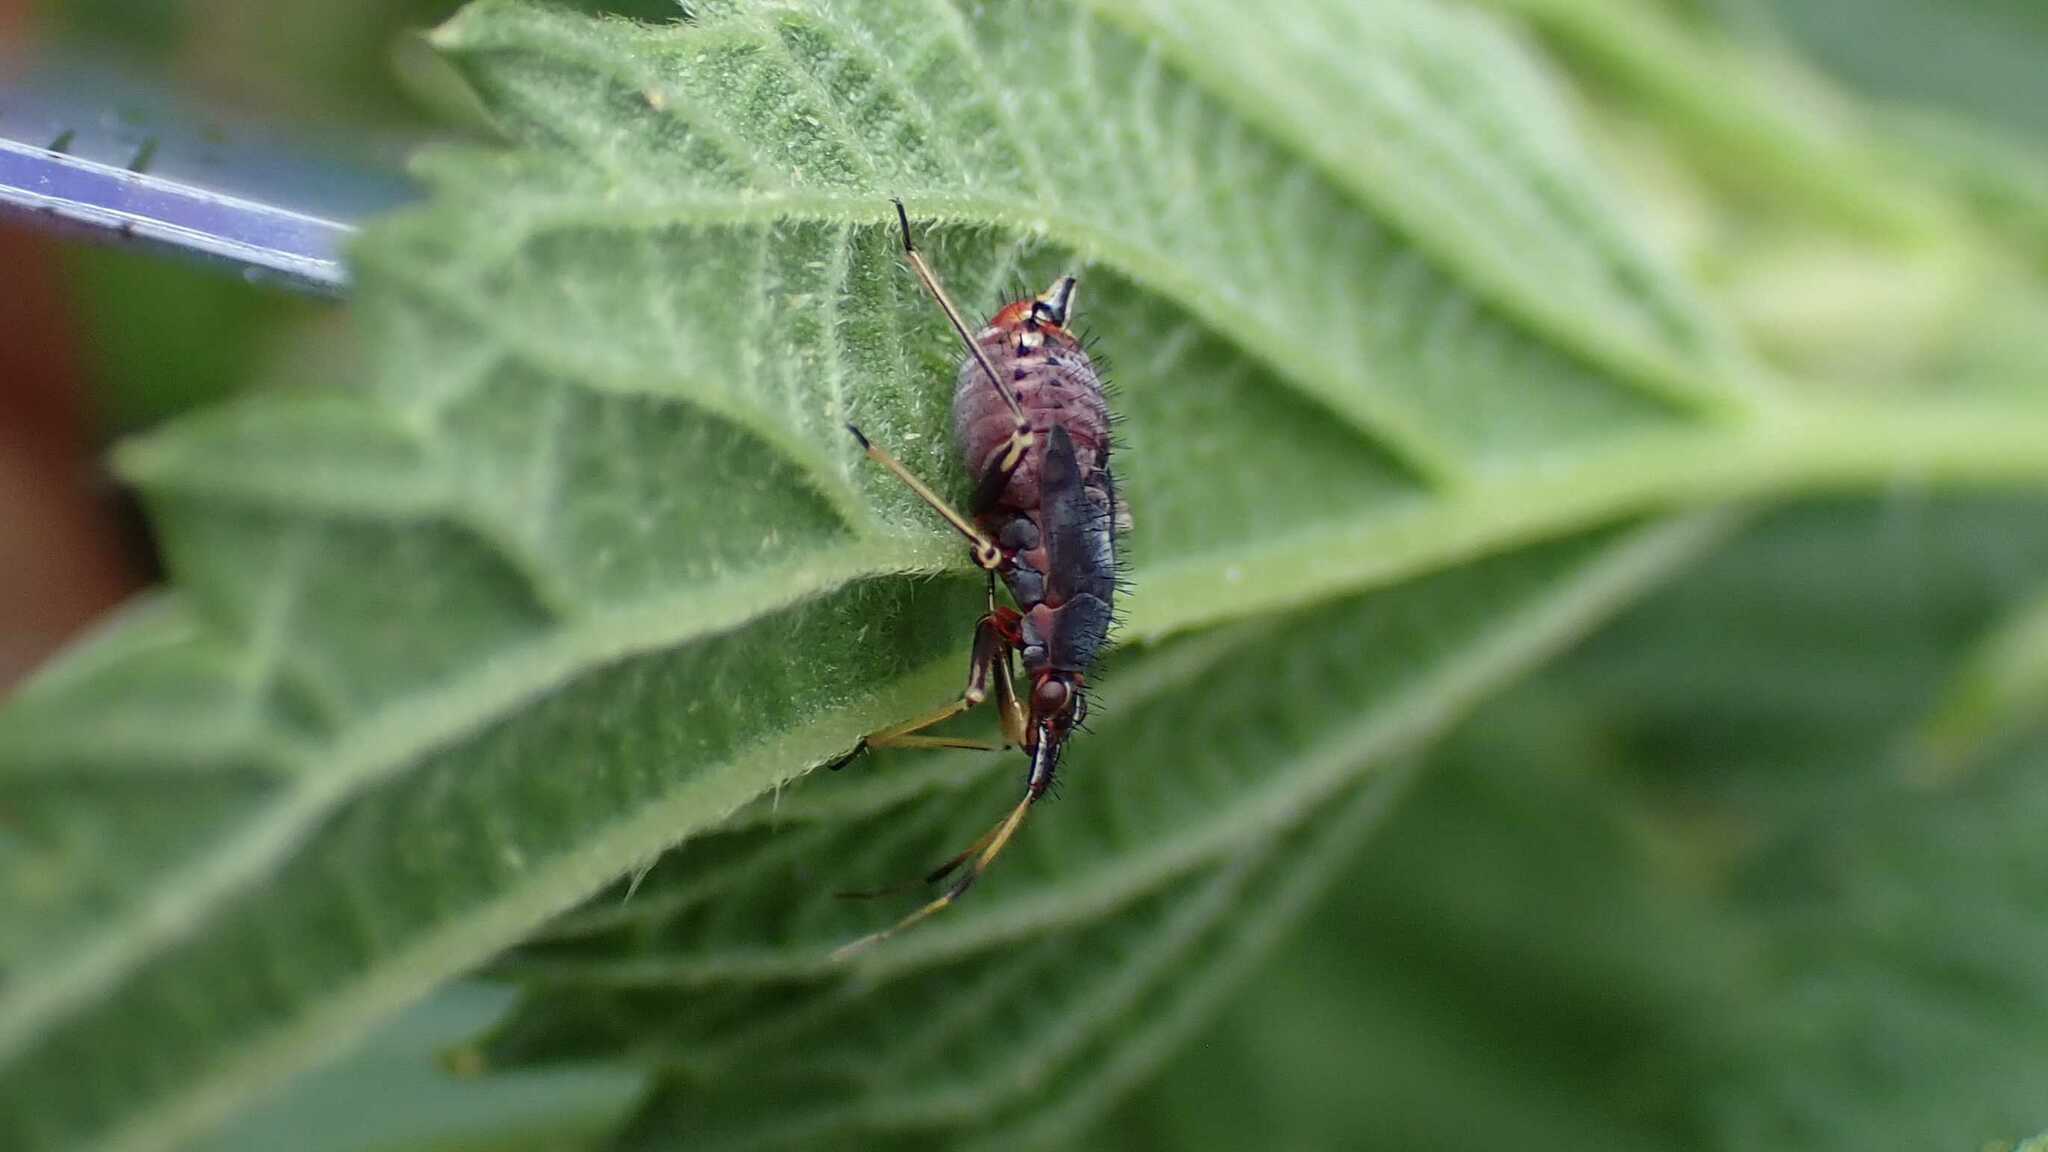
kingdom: Animalia
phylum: Arthropoda
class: Insecta
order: Hemiptera
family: Miridae
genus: Deraeocoris
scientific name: Deraeocoris ruber
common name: Plant bug
